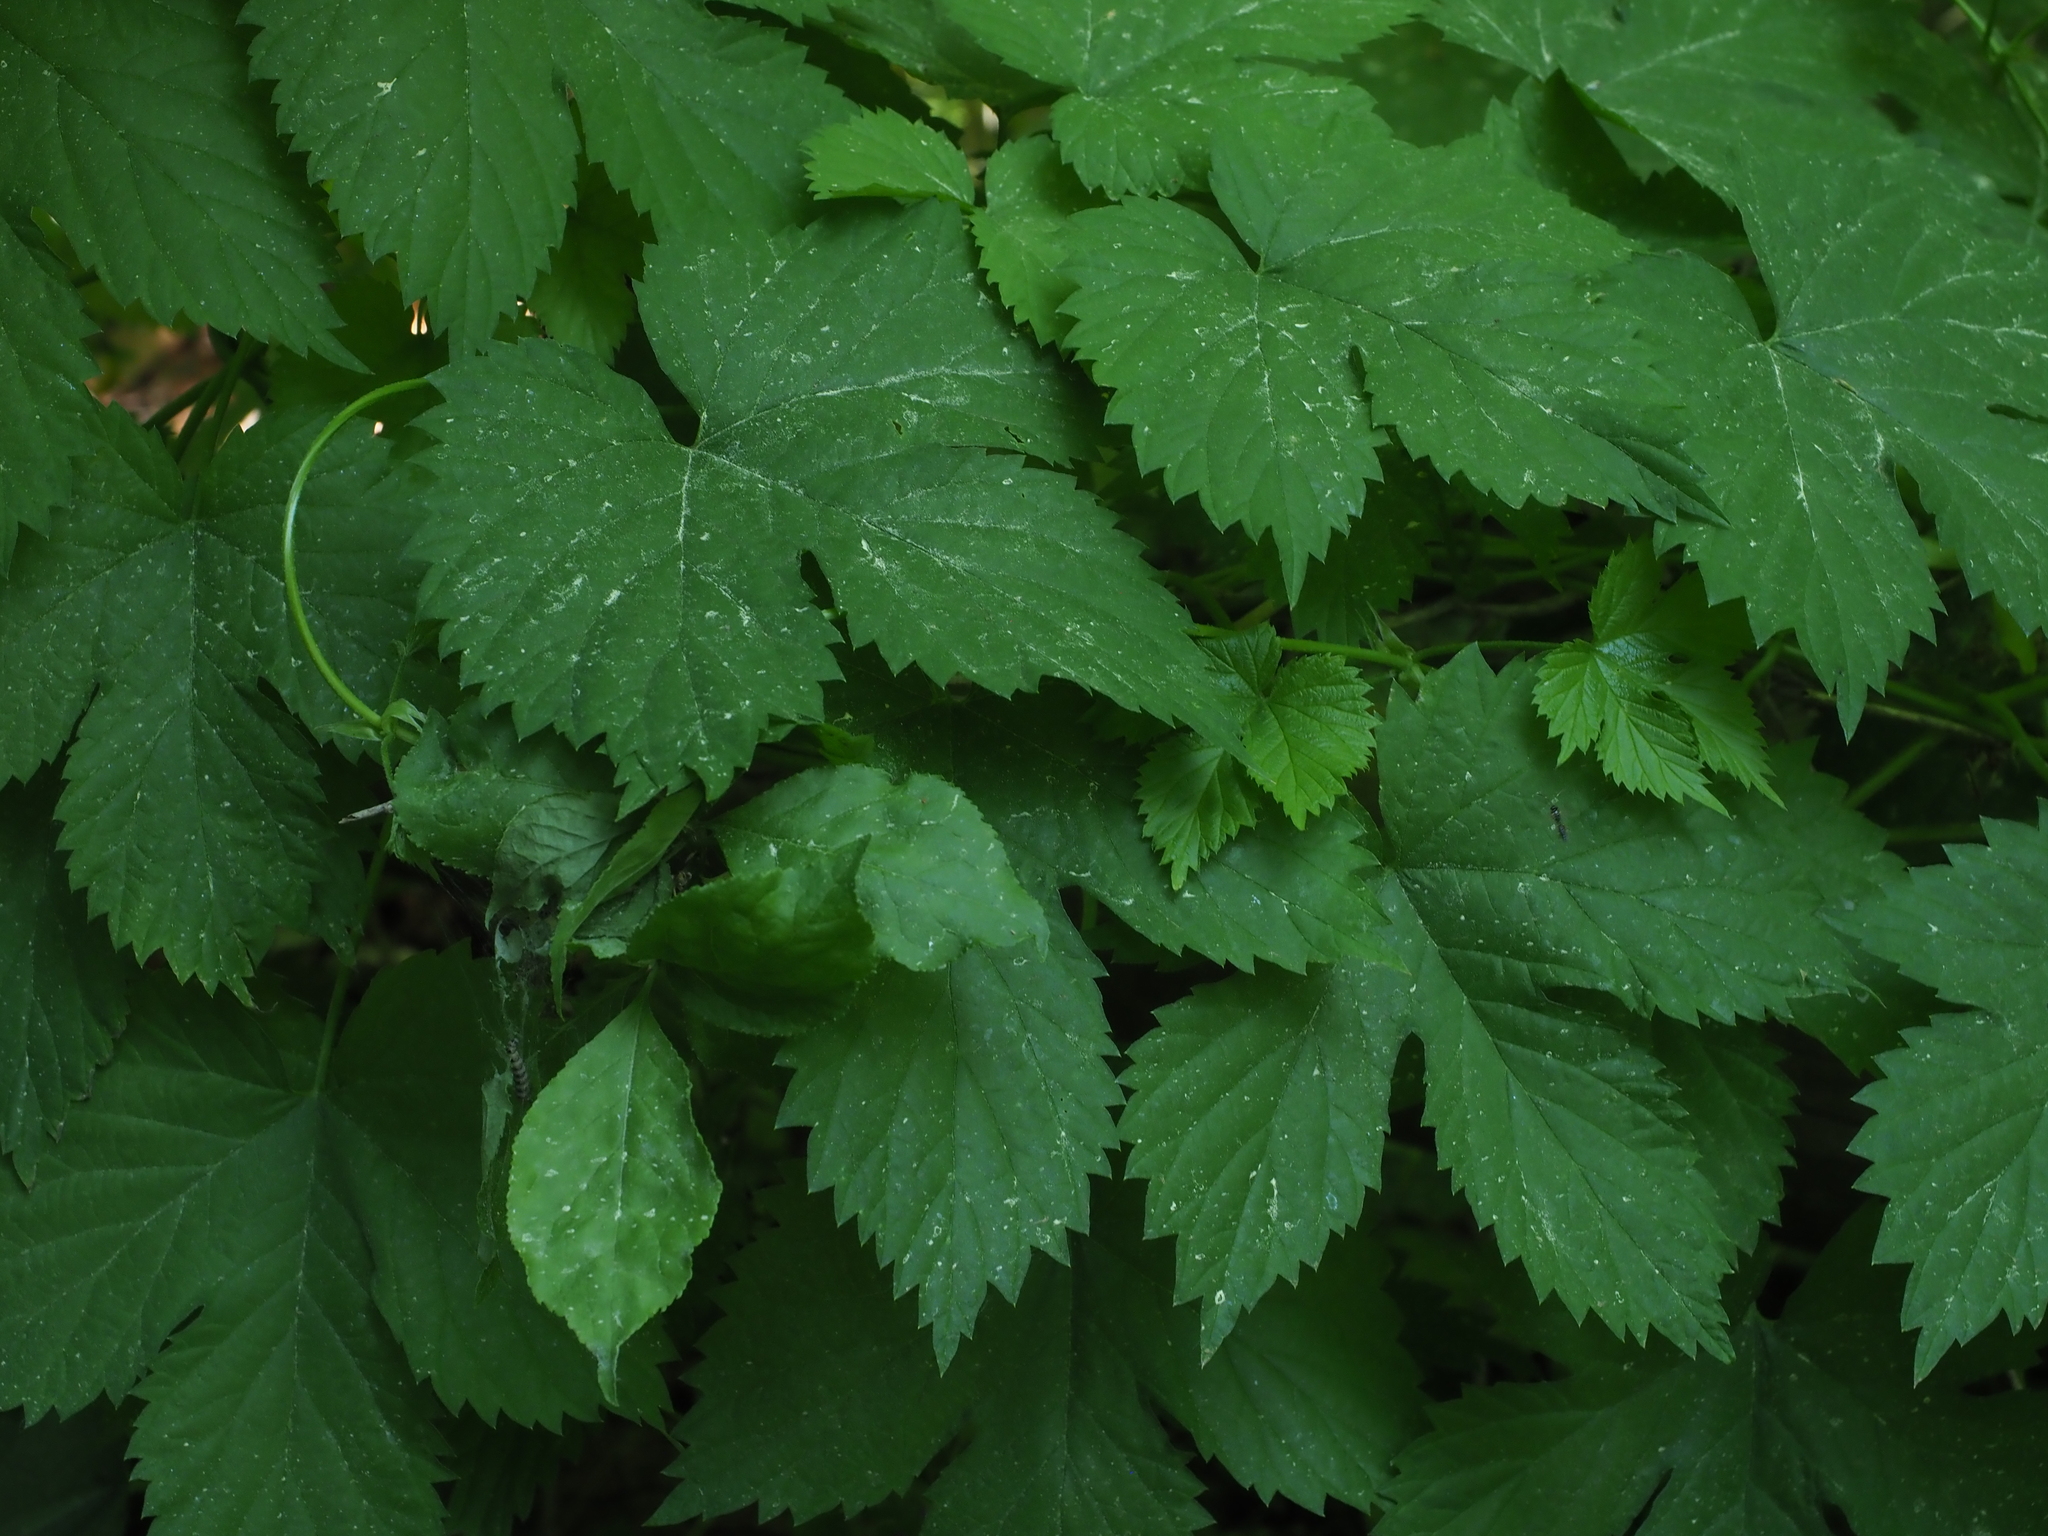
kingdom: Plantae
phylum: Tracheophyta
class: Magnoliopsida
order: Rosales
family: Cannabaceae
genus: Humulus
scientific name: Humulus lupulus
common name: Hop
